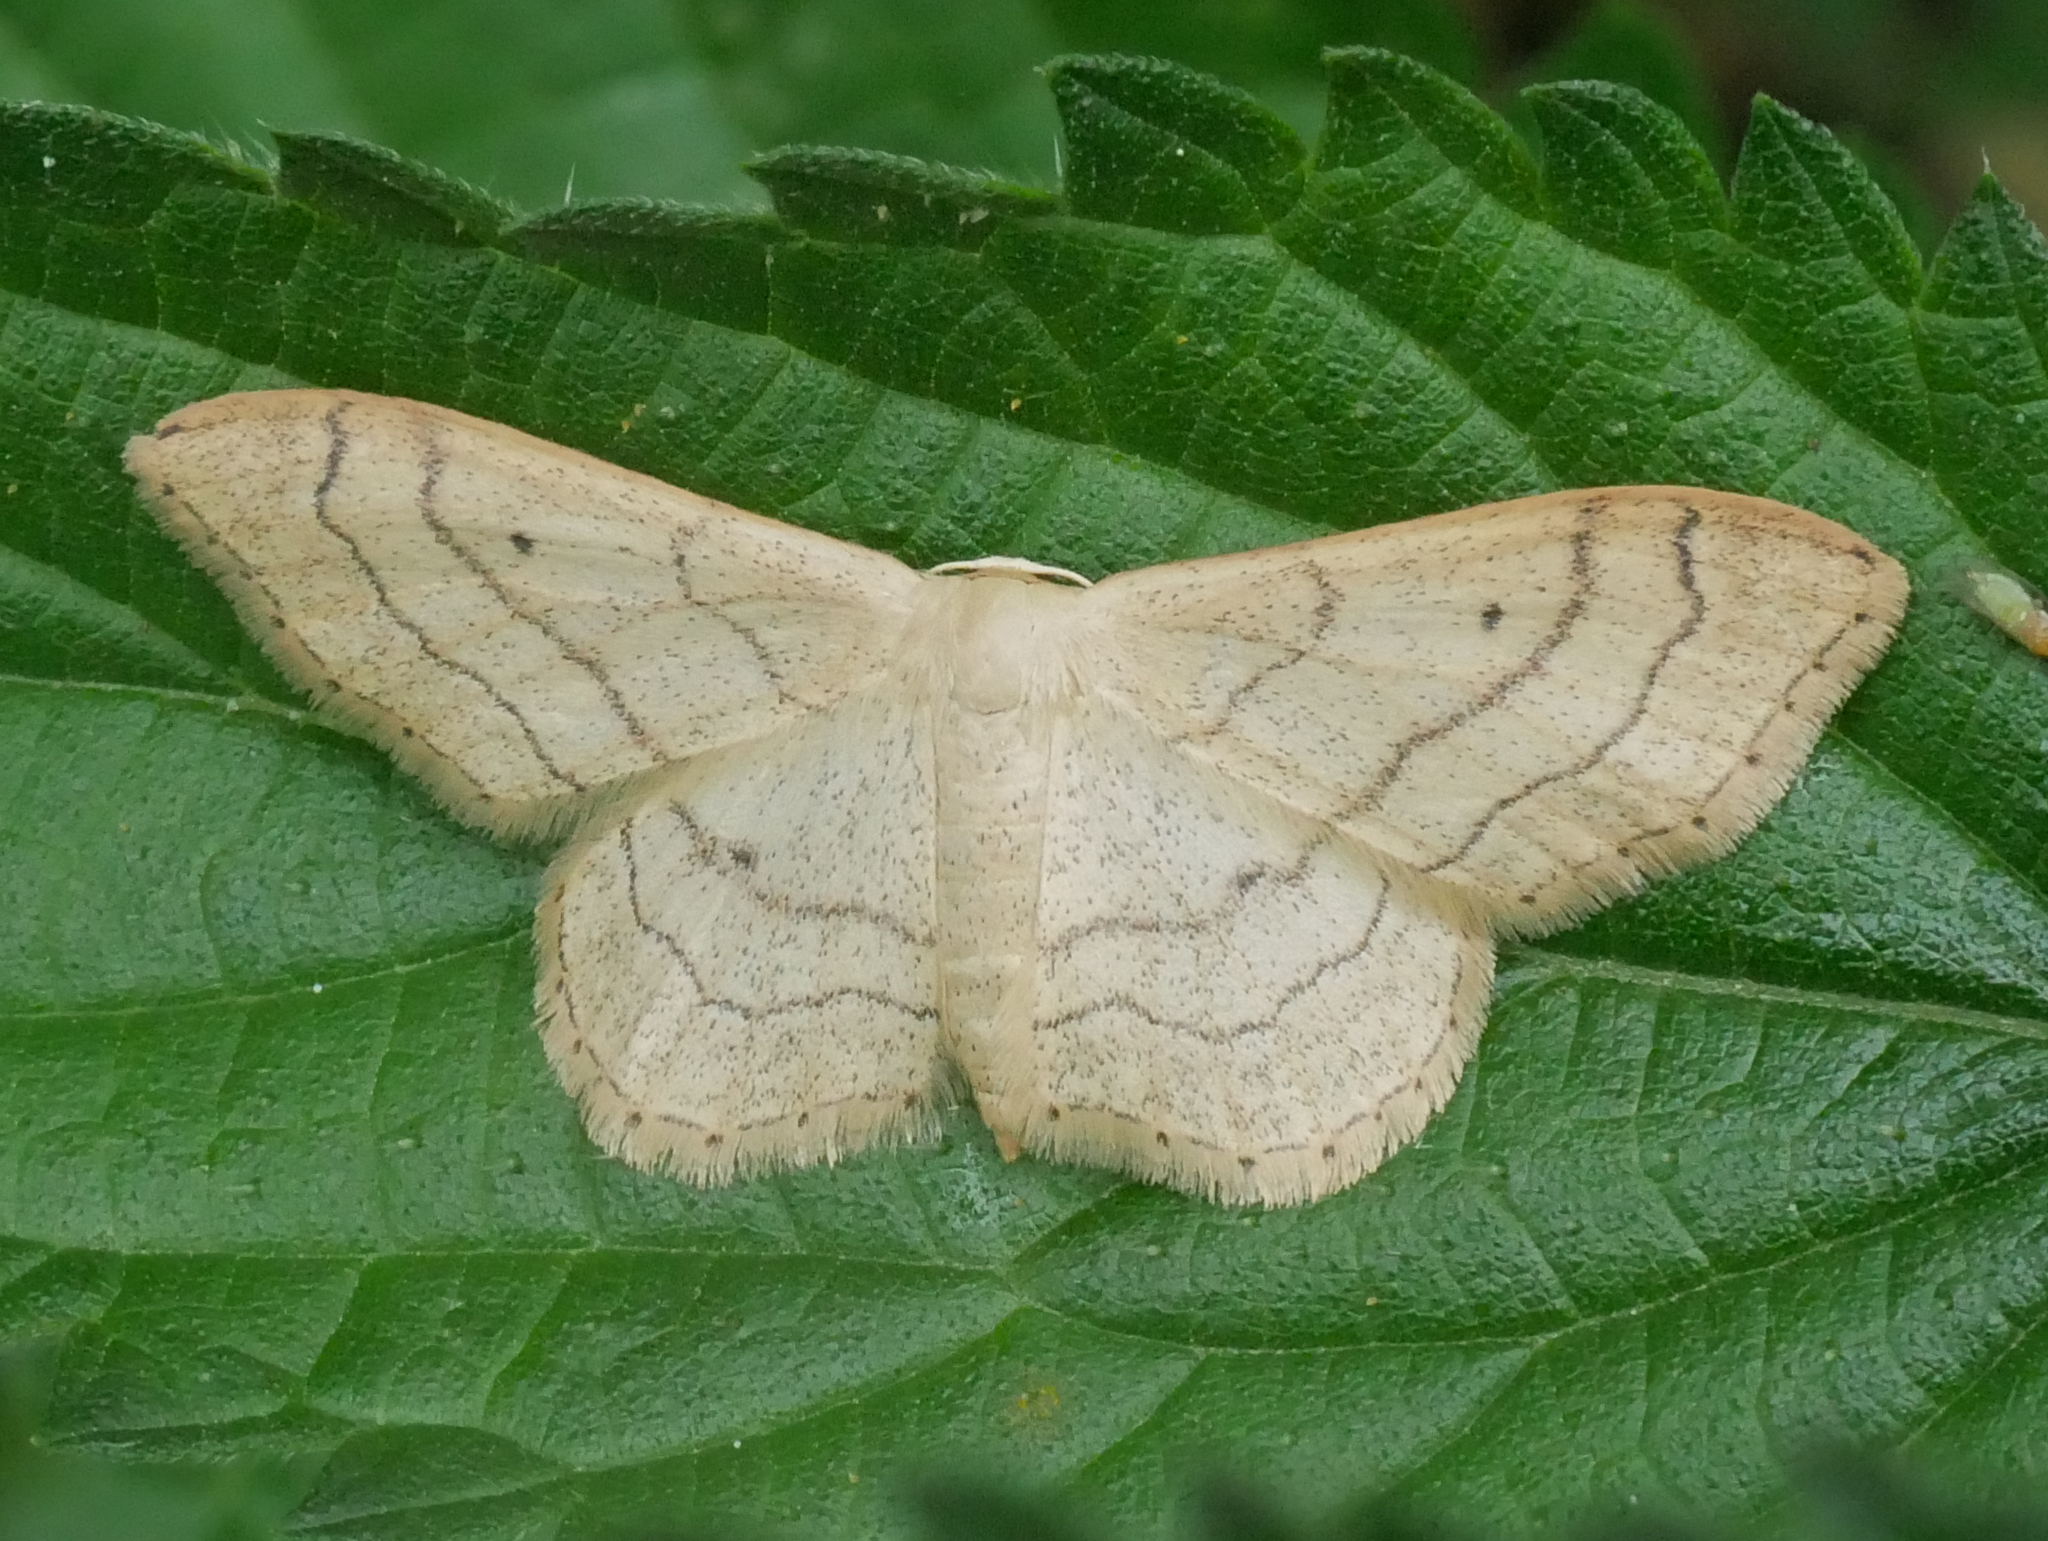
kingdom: Animalia
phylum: Arthropoda
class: Insecta
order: Lepidoptera
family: Geometridae
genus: Idaea
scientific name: Idaea aversata
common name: Riband wave
